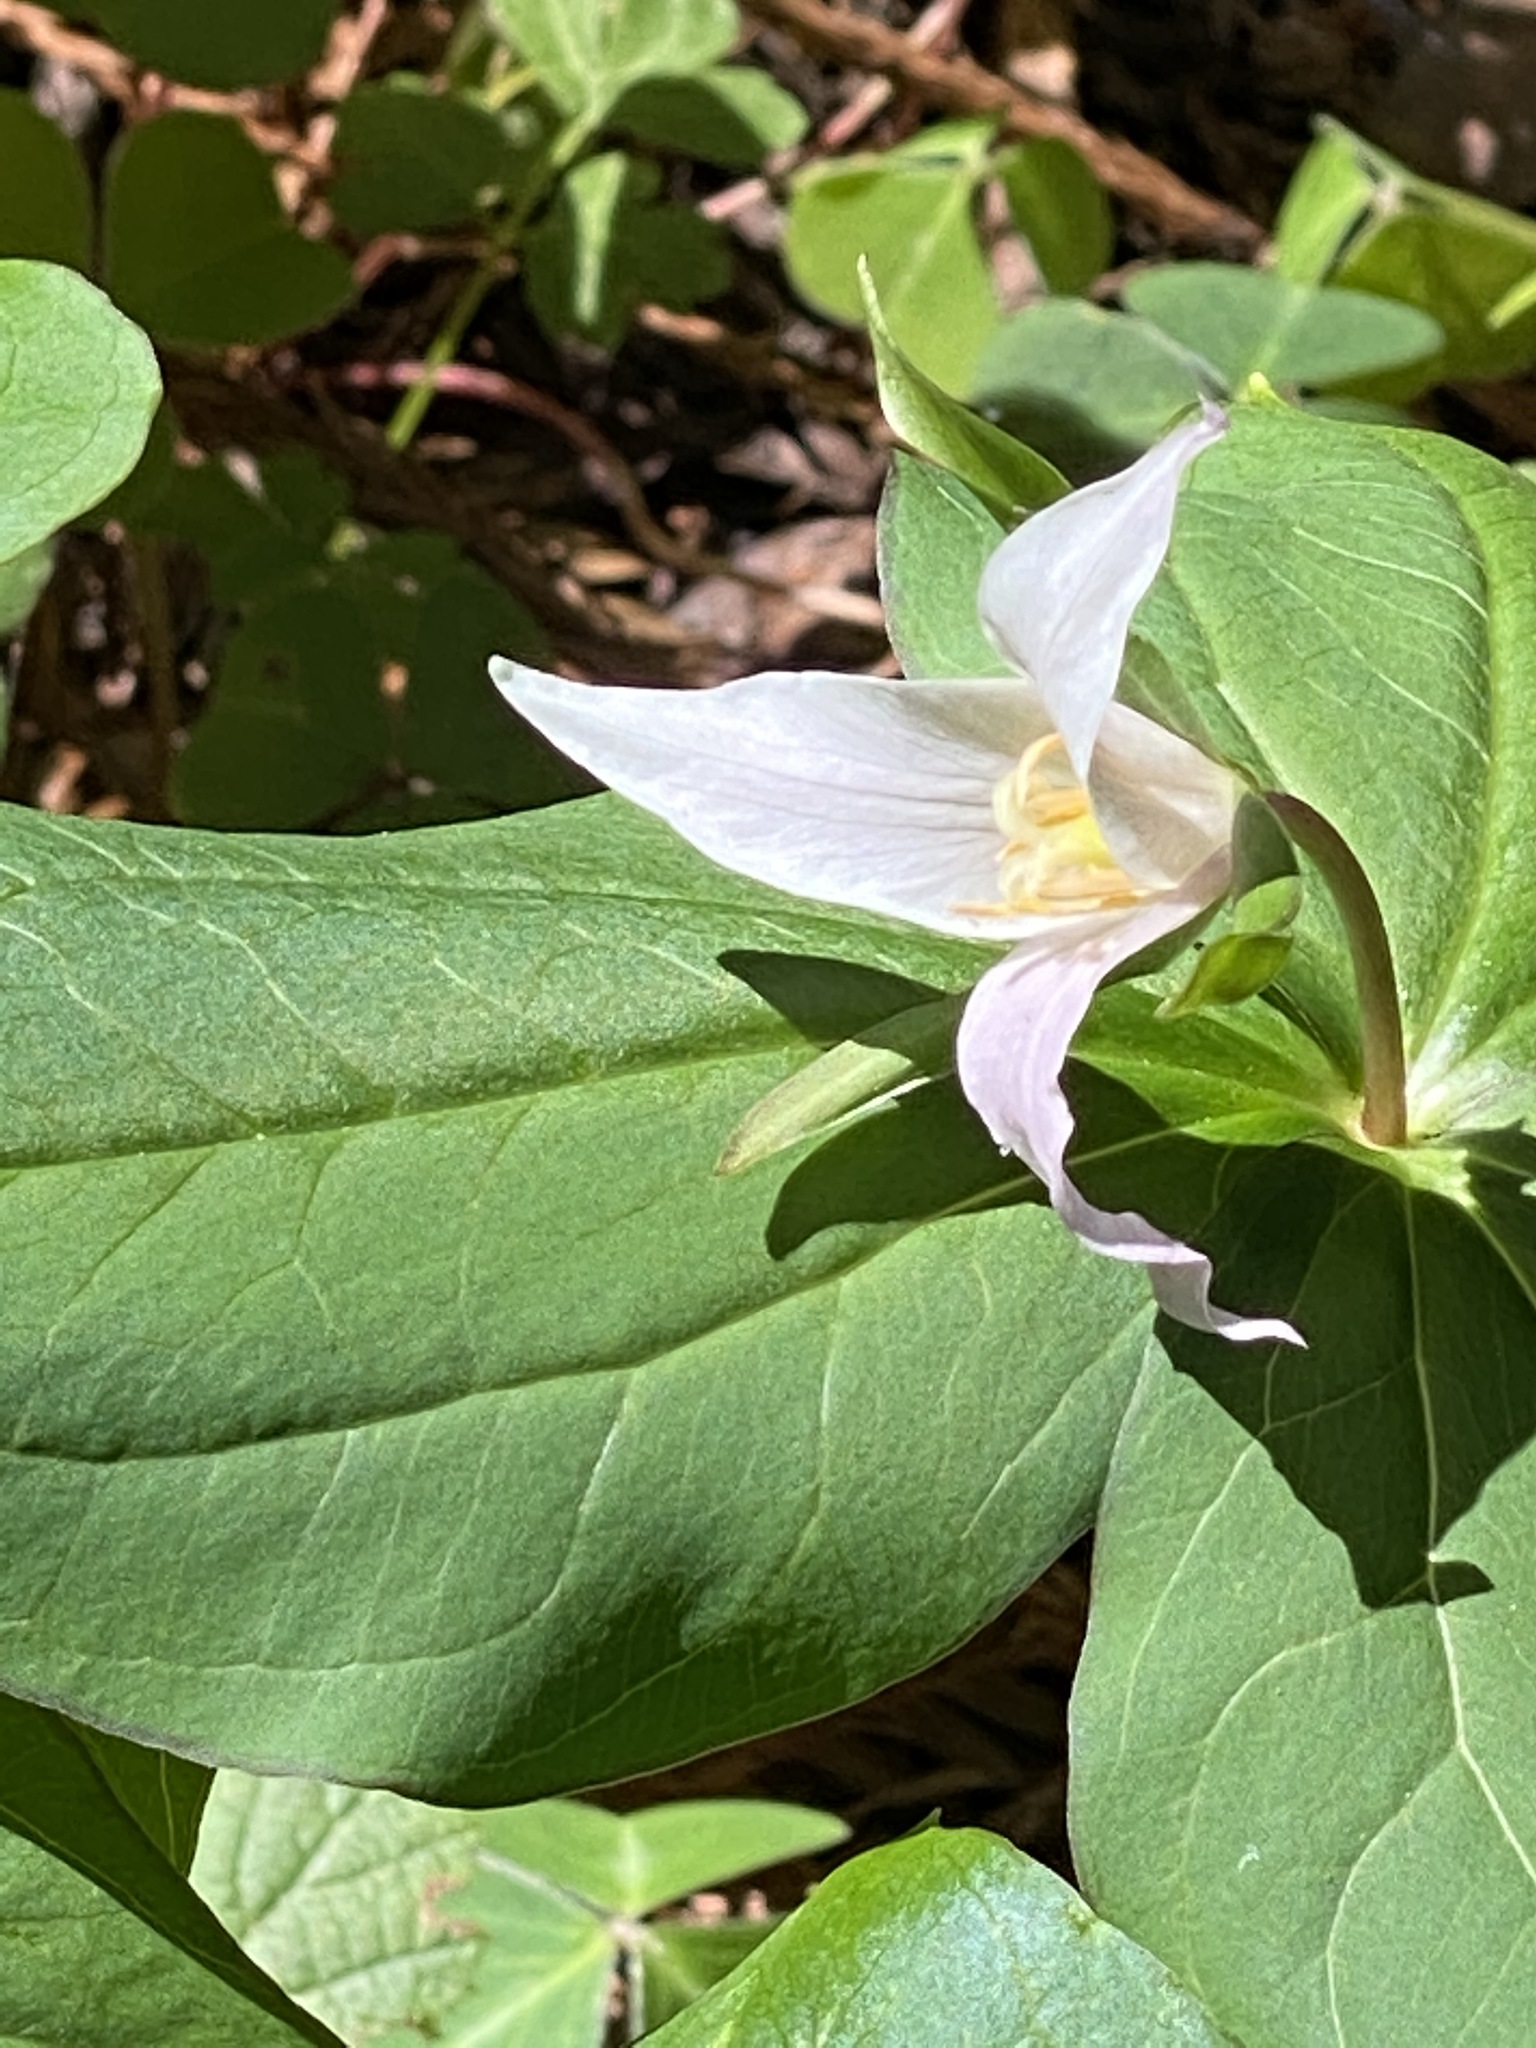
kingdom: Plantae
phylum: Tracheophyta
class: Liliopsida
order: Liliales
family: Melanthiaceae
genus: Trillium
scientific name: Trillium ovatum
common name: Pacific trillium
